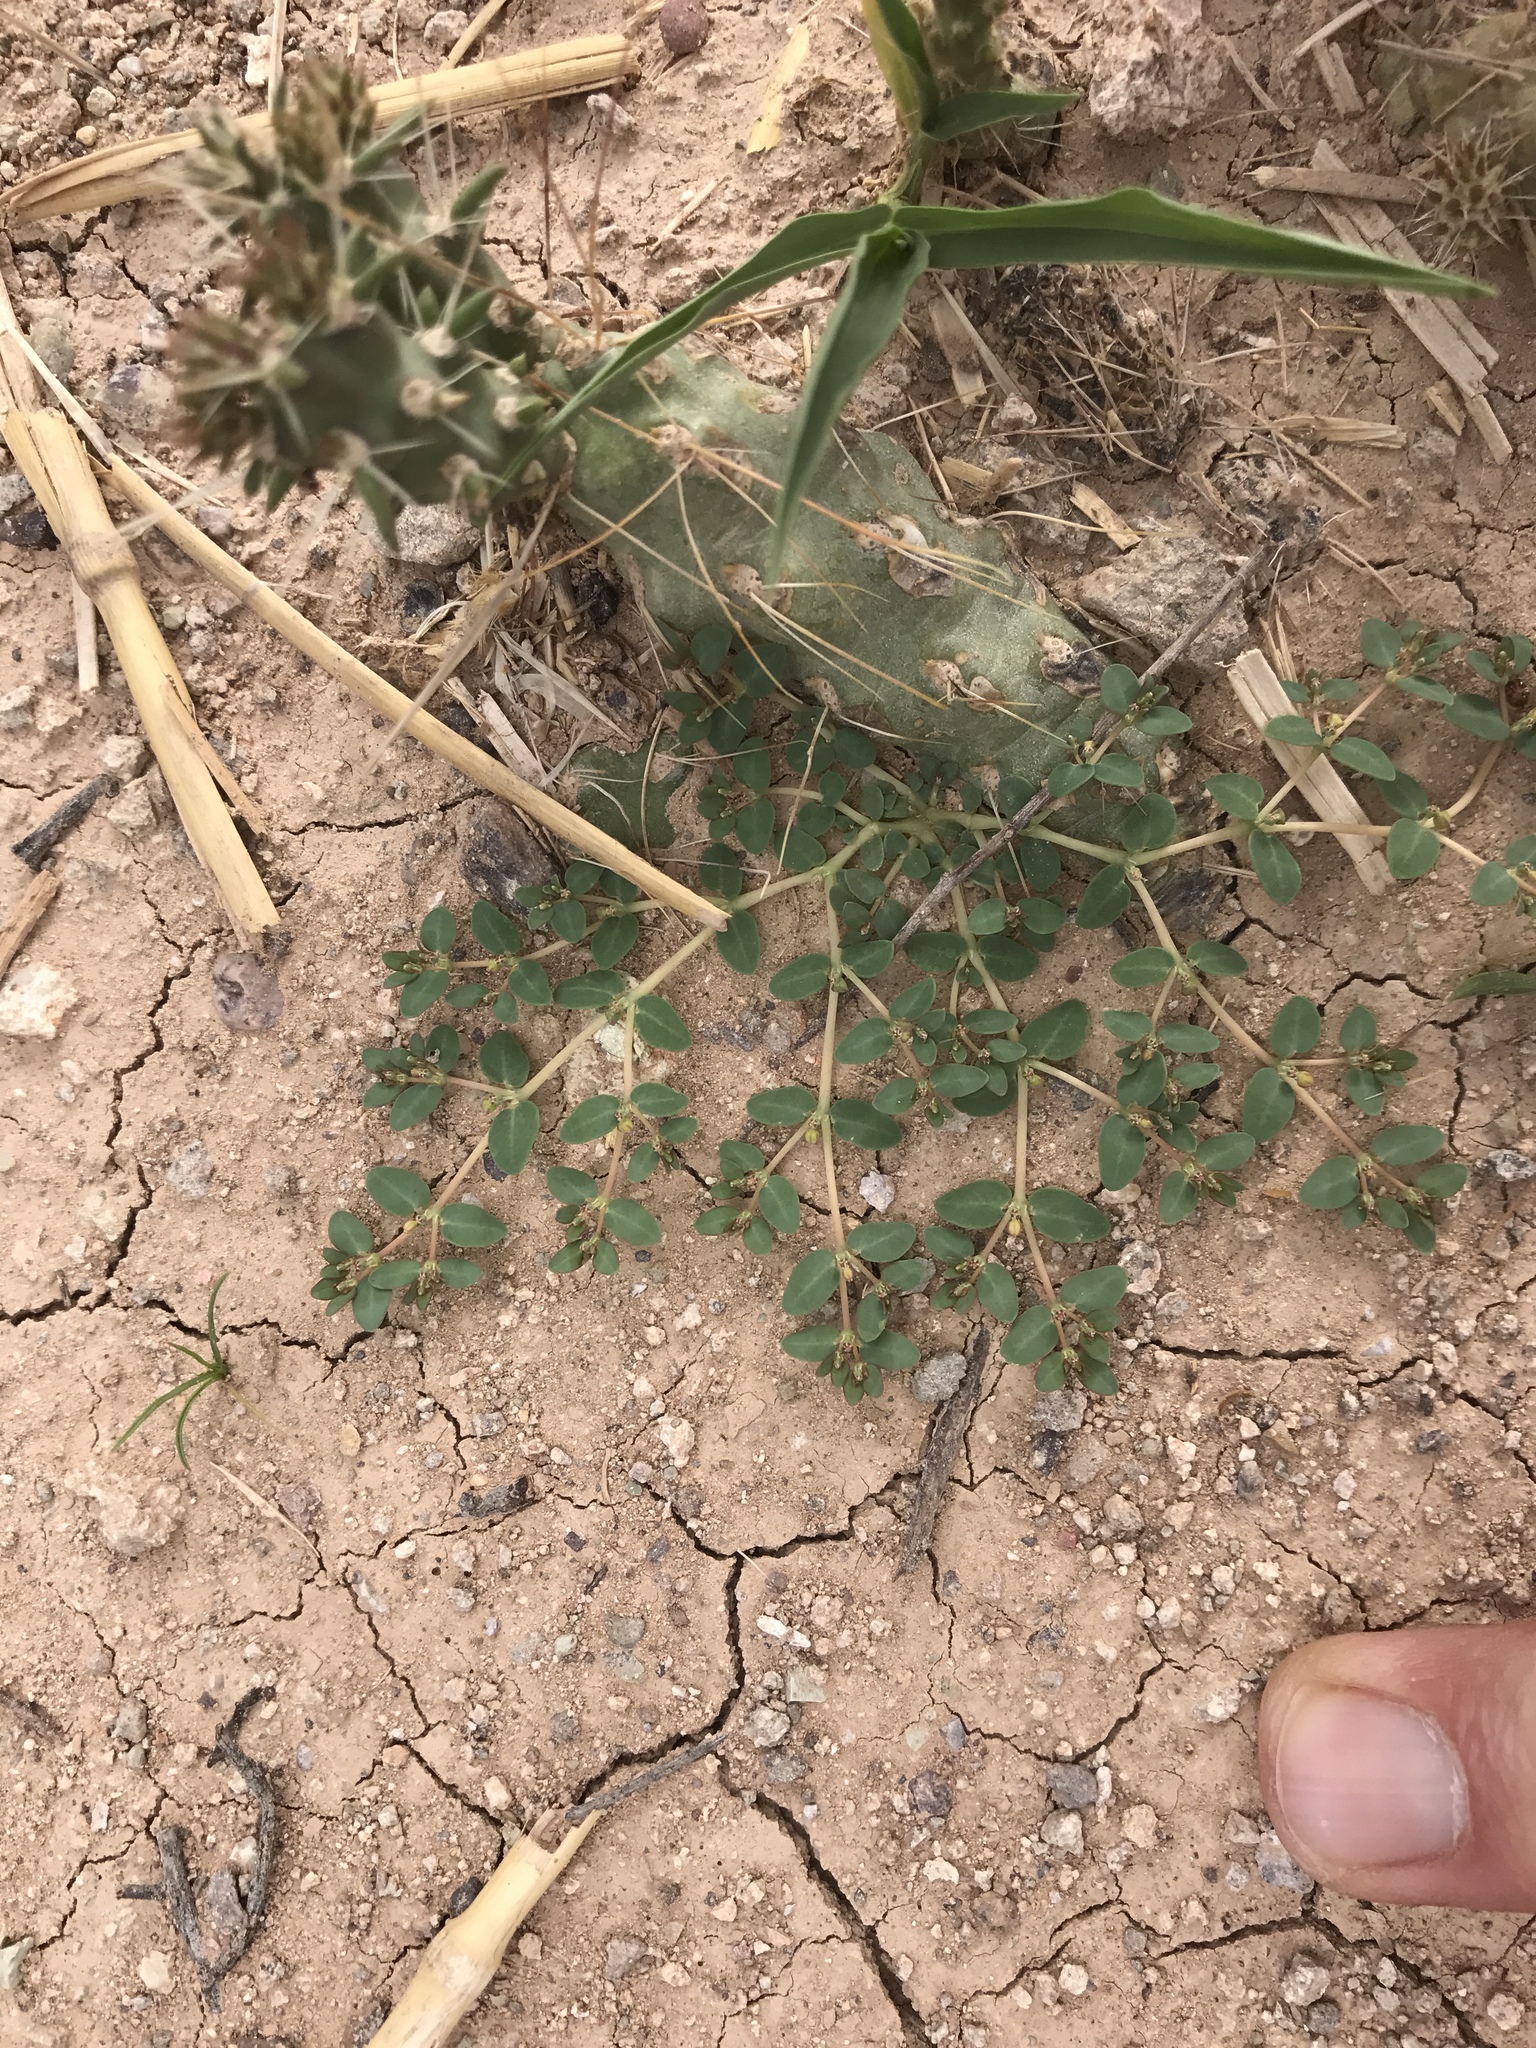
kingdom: Plantae
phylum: Tracheophyta
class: Magnoliopsida
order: Malpighiales
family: Euphorbiaceae
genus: Euphorbia
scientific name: Euphorbia micromera
